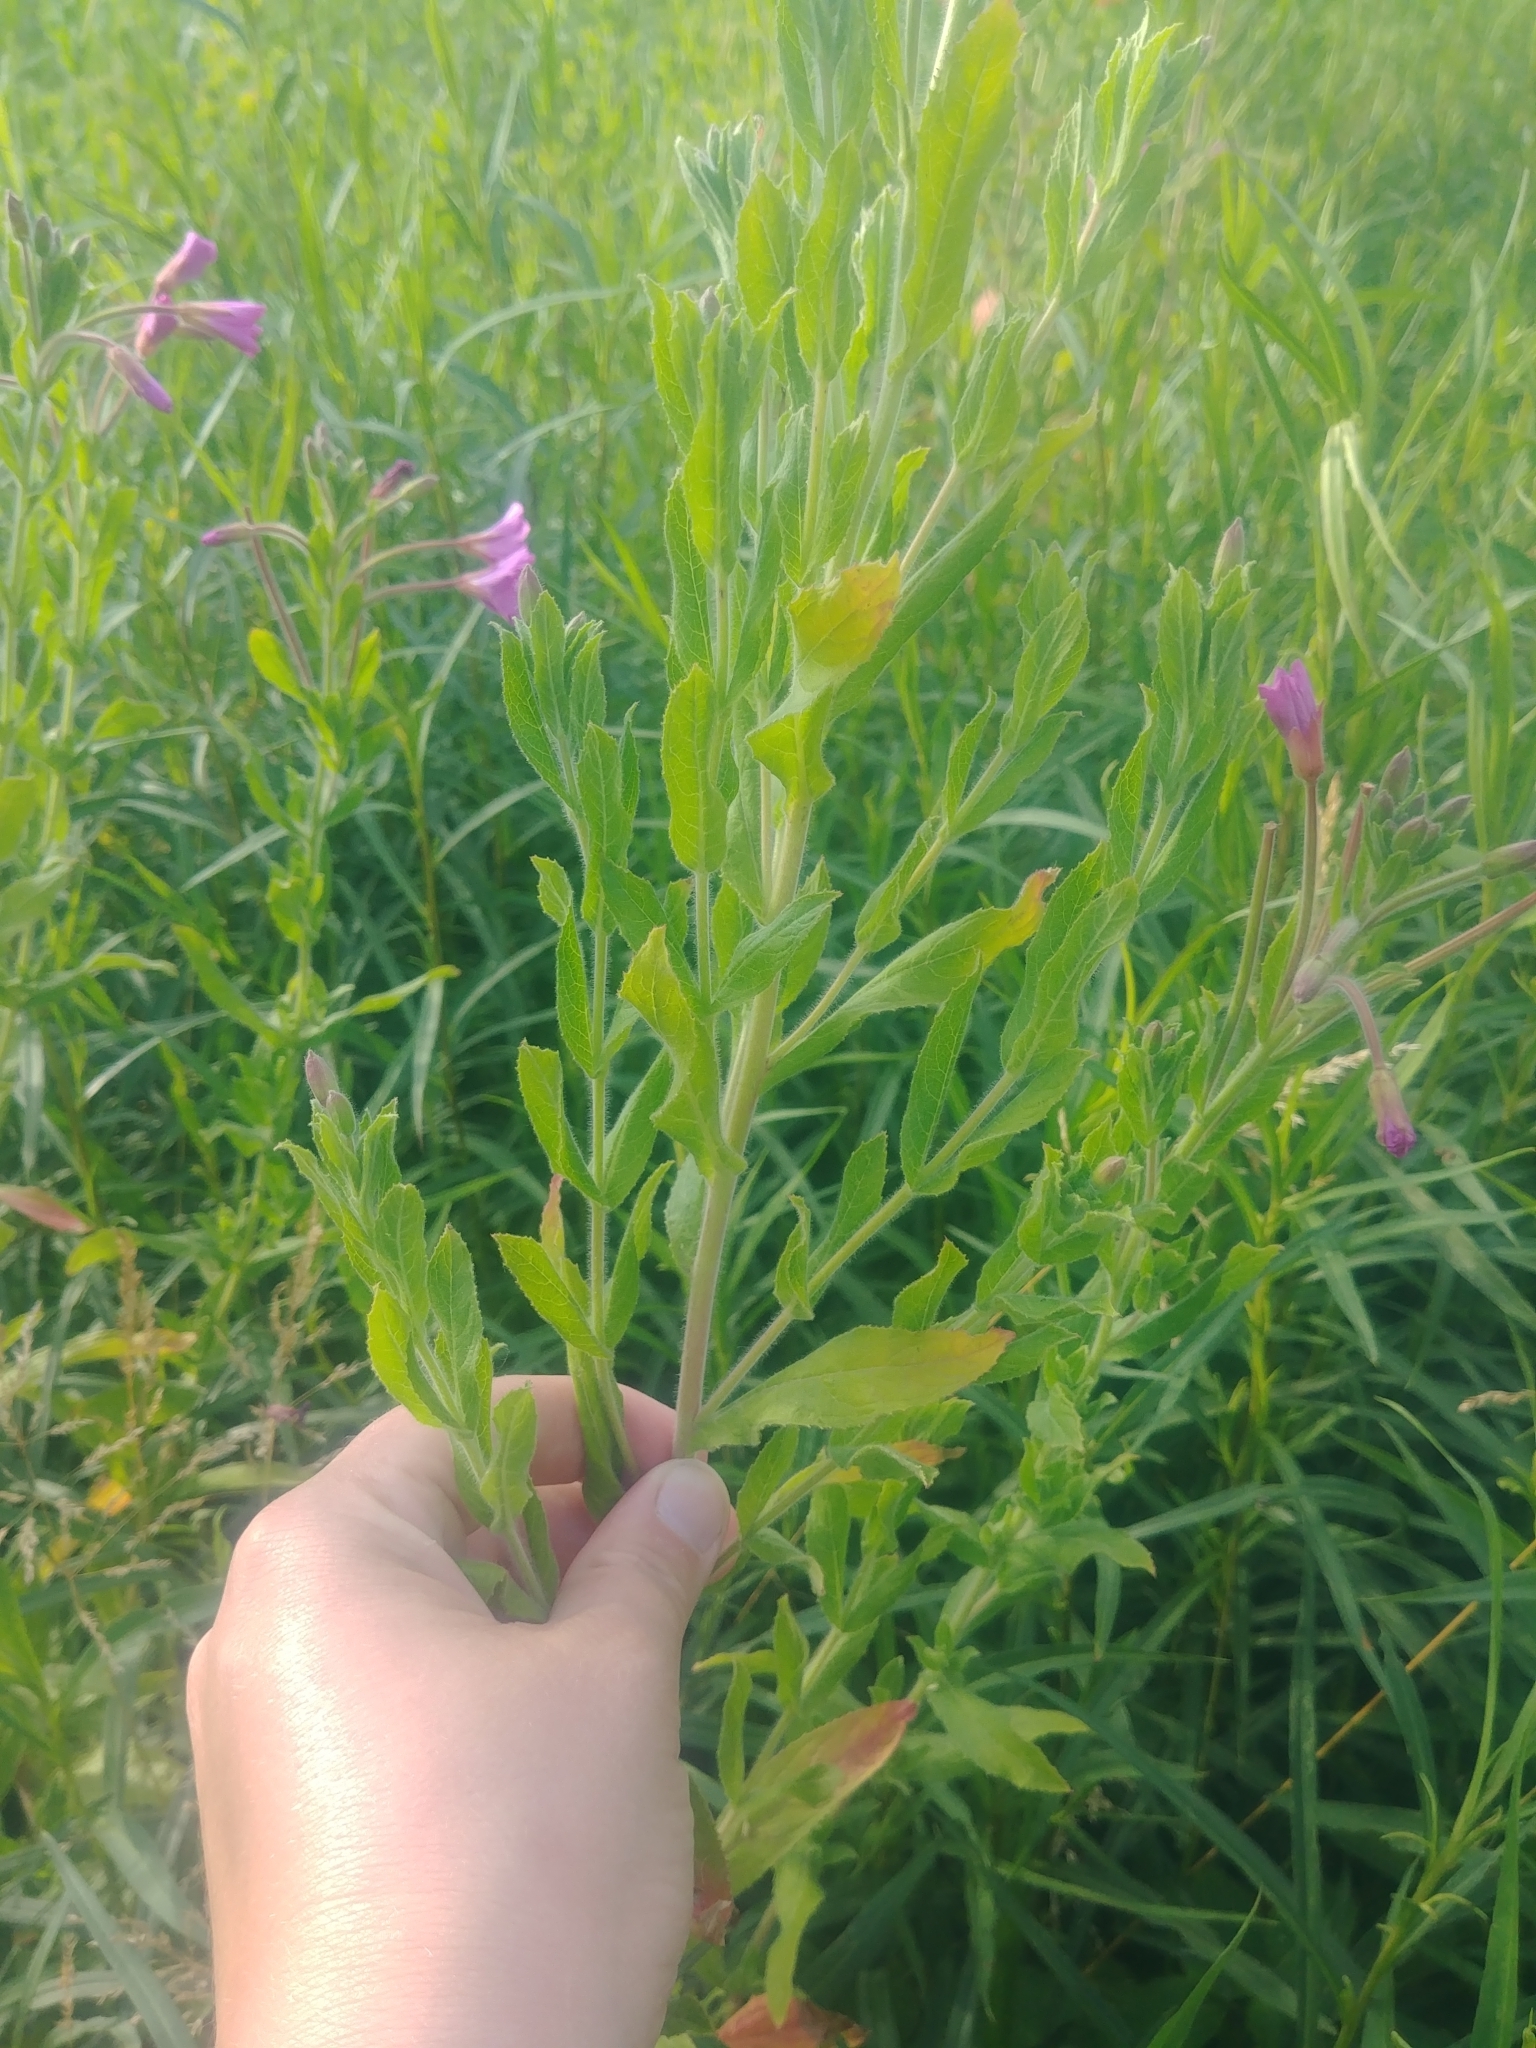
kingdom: Plantae
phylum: Tracheophyta
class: Magnoliopsida
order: Myrtales
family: Onagraceae
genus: Epilobium
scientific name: Epilobium hirsutum
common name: Great willowherb
